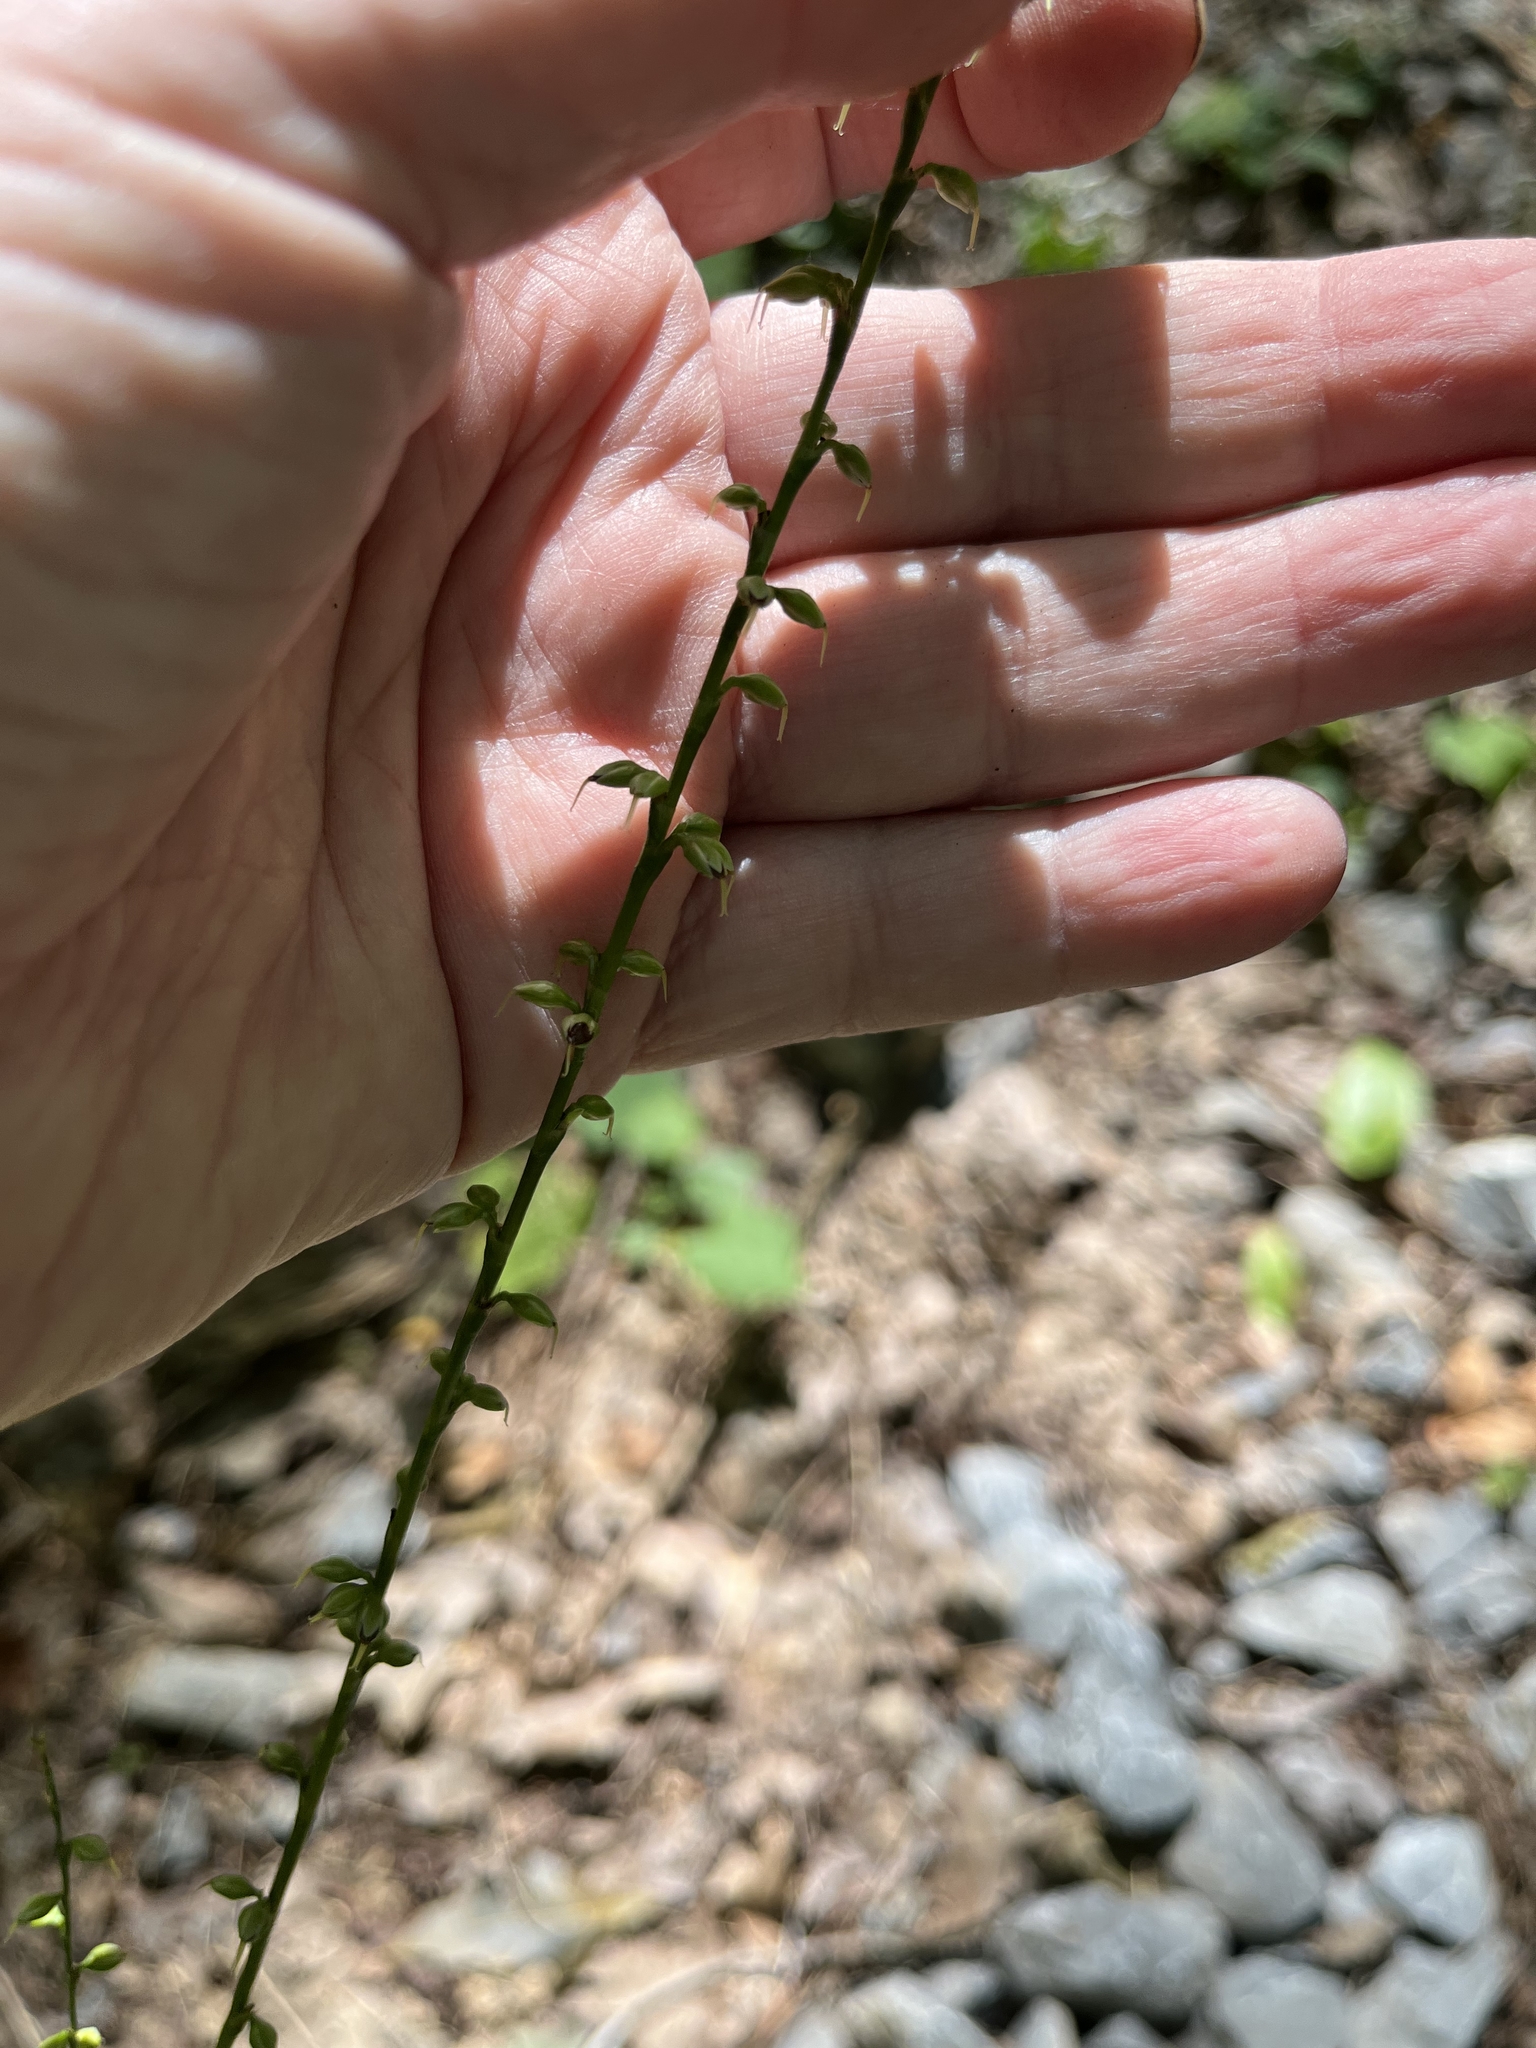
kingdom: Plantae
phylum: Tracheophyta
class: Magnoliopsida
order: Caryophyllales
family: Polygonaceae
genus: Persicaria
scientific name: Persicaria virginiana
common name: Jumpseed
